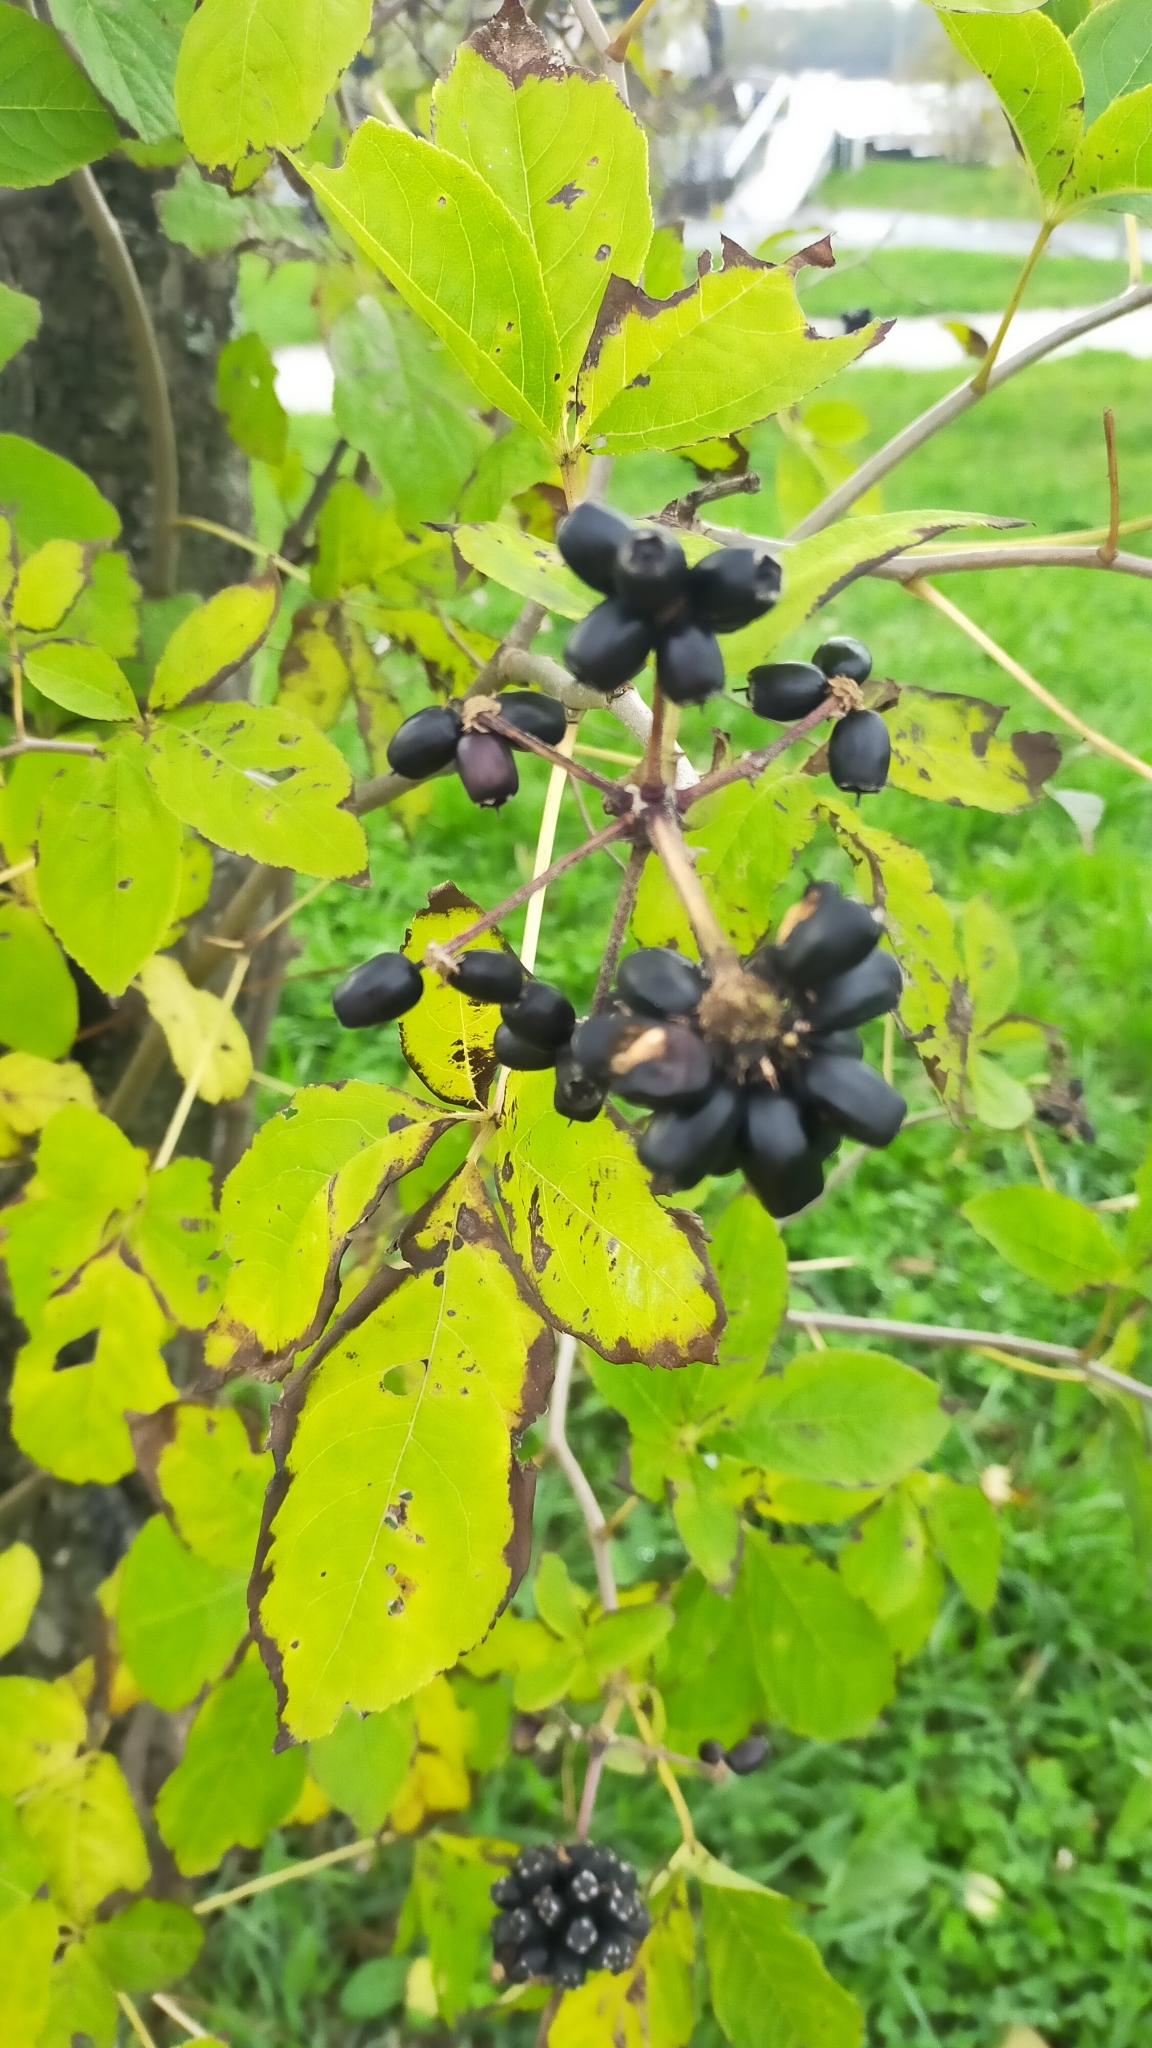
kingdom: Plantae
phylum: Tracheophyta
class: Magnoliopsida
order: Apiales
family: Araliaceae
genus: Eleutherococcus
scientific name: Eleutherococcus sessiliflorus
